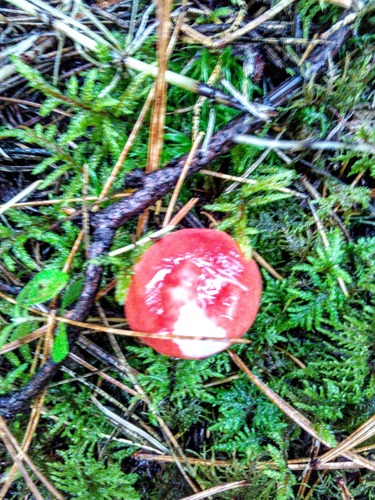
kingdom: Fungi
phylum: Basidiomycota
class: Agaricomycetes
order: Russulales
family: Russulaceae
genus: Russula
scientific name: Russula sanguinea
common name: Bloody brittlegill
